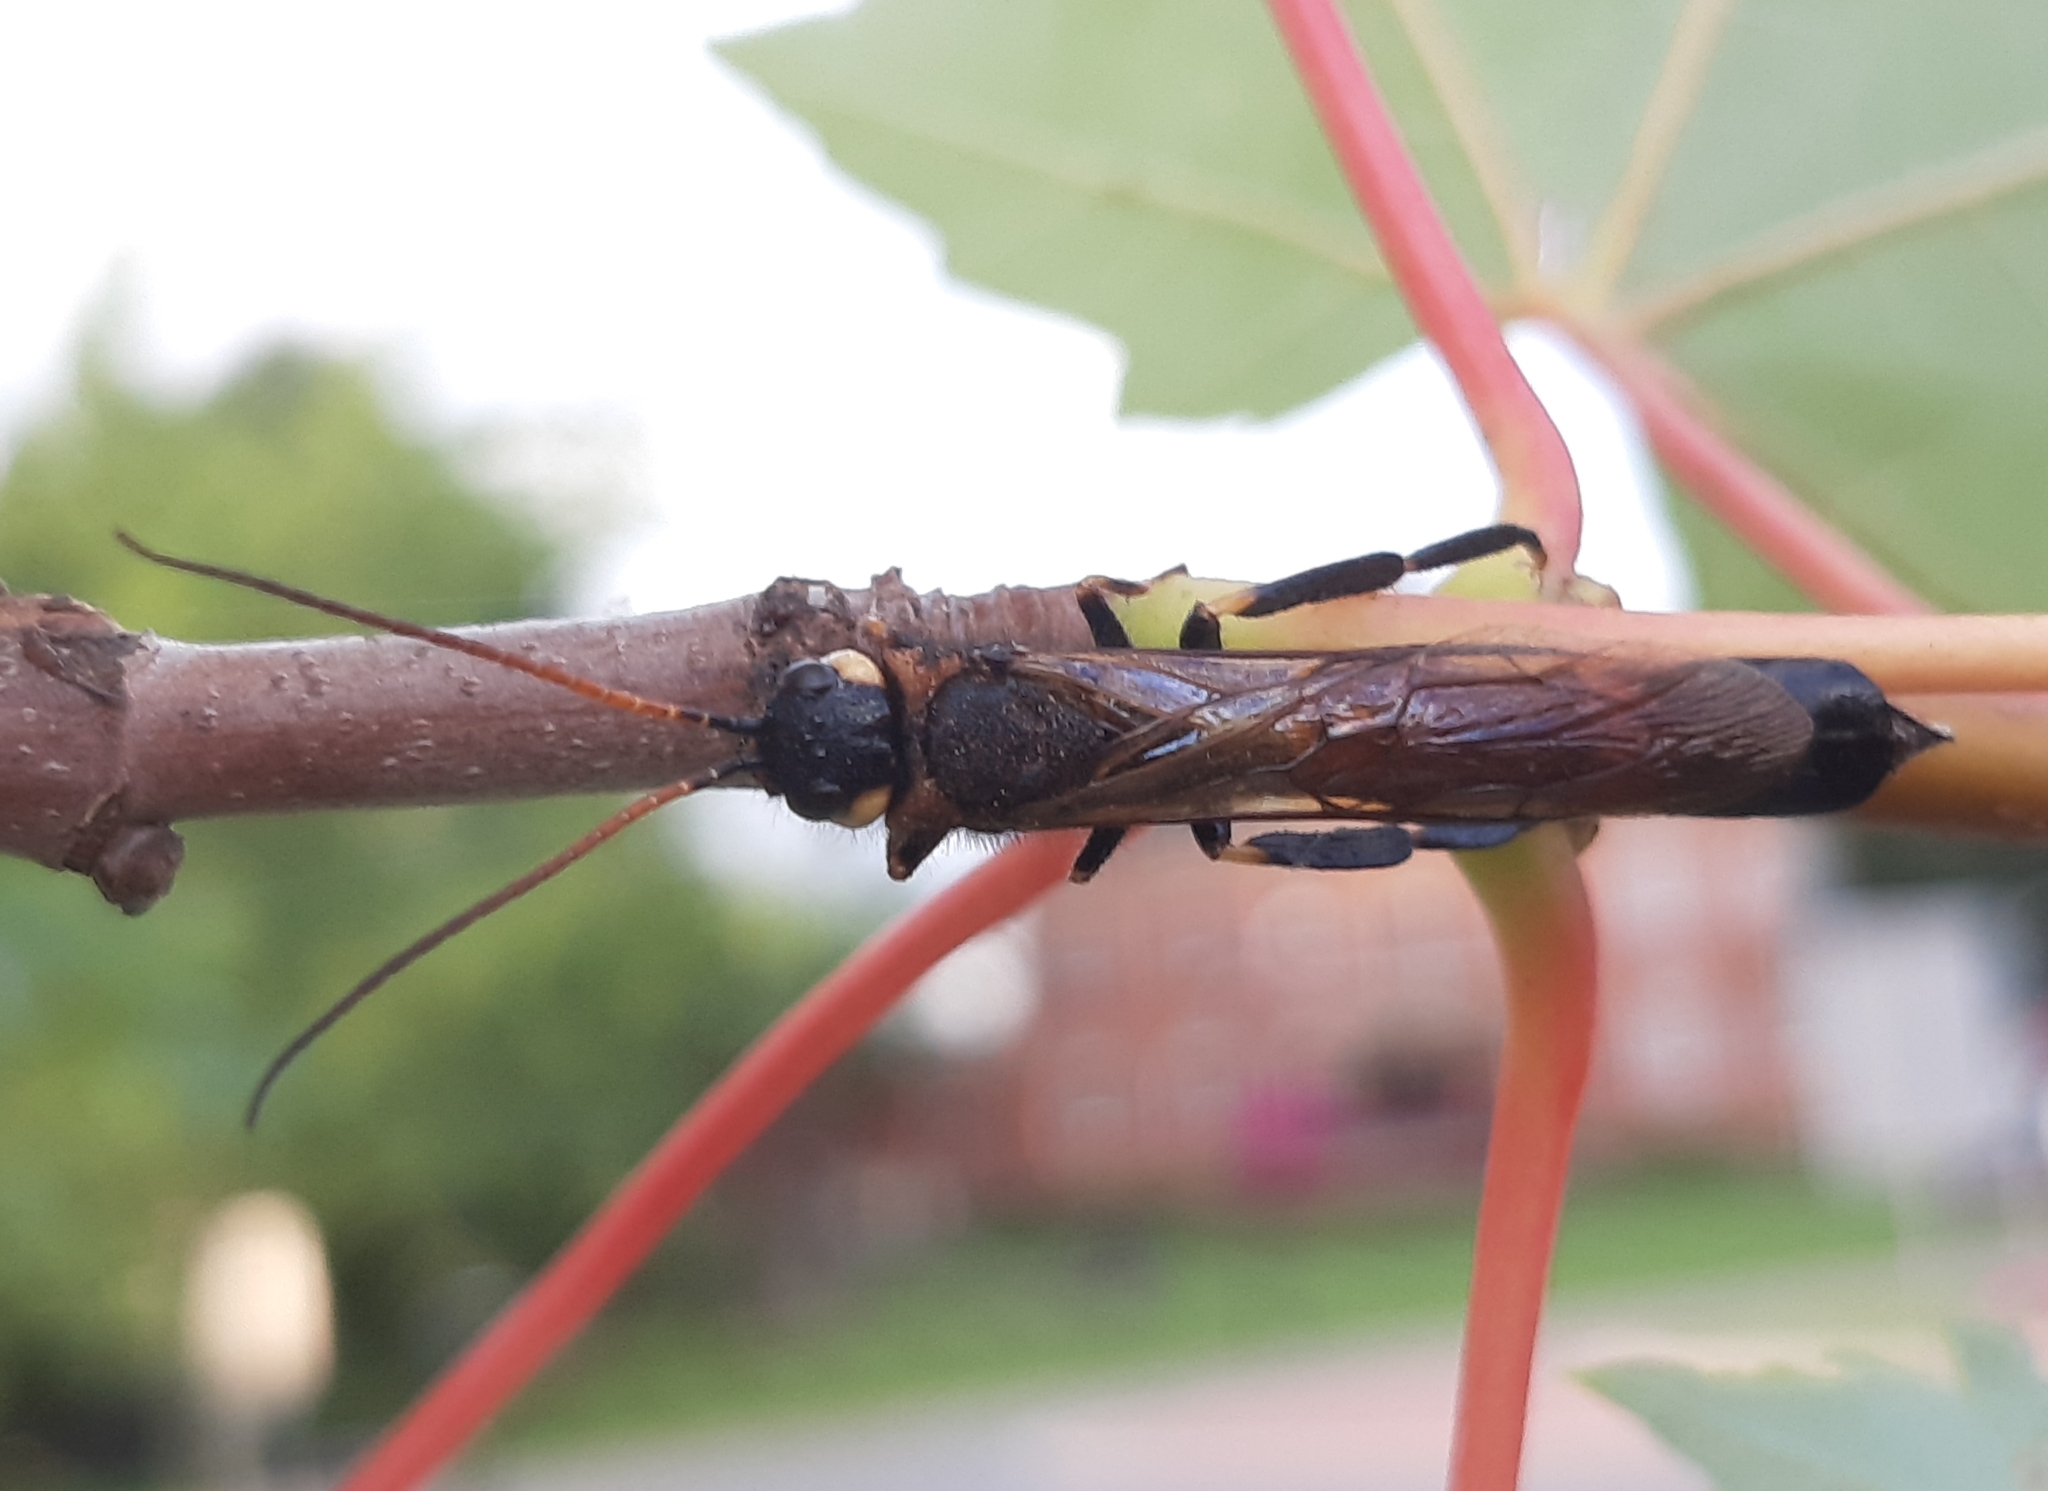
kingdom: Animalia
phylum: Arthropoda
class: Insecta
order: Hymenoptera
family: Siricidae
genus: Urocerus
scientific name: Urocerus albicornis
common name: White-horned horntail
